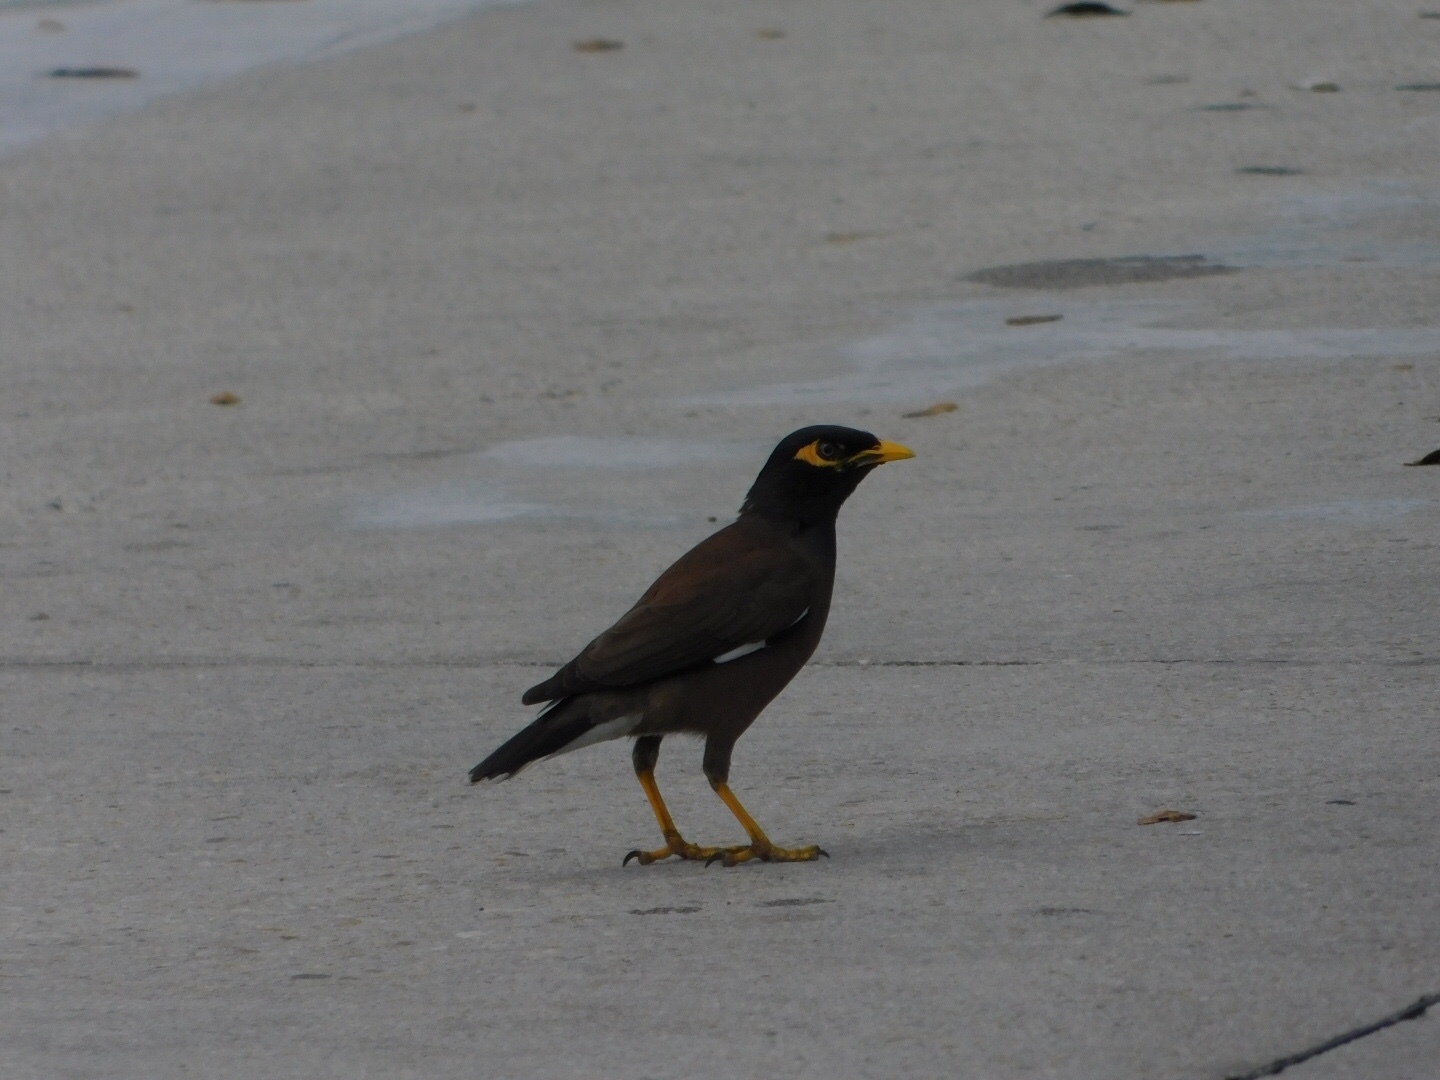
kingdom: Animalia
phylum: Chordata
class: Aves
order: Passeriformes
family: Sturnidae
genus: Acridotheres
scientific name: Acridotheres tristis
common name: Common myna
